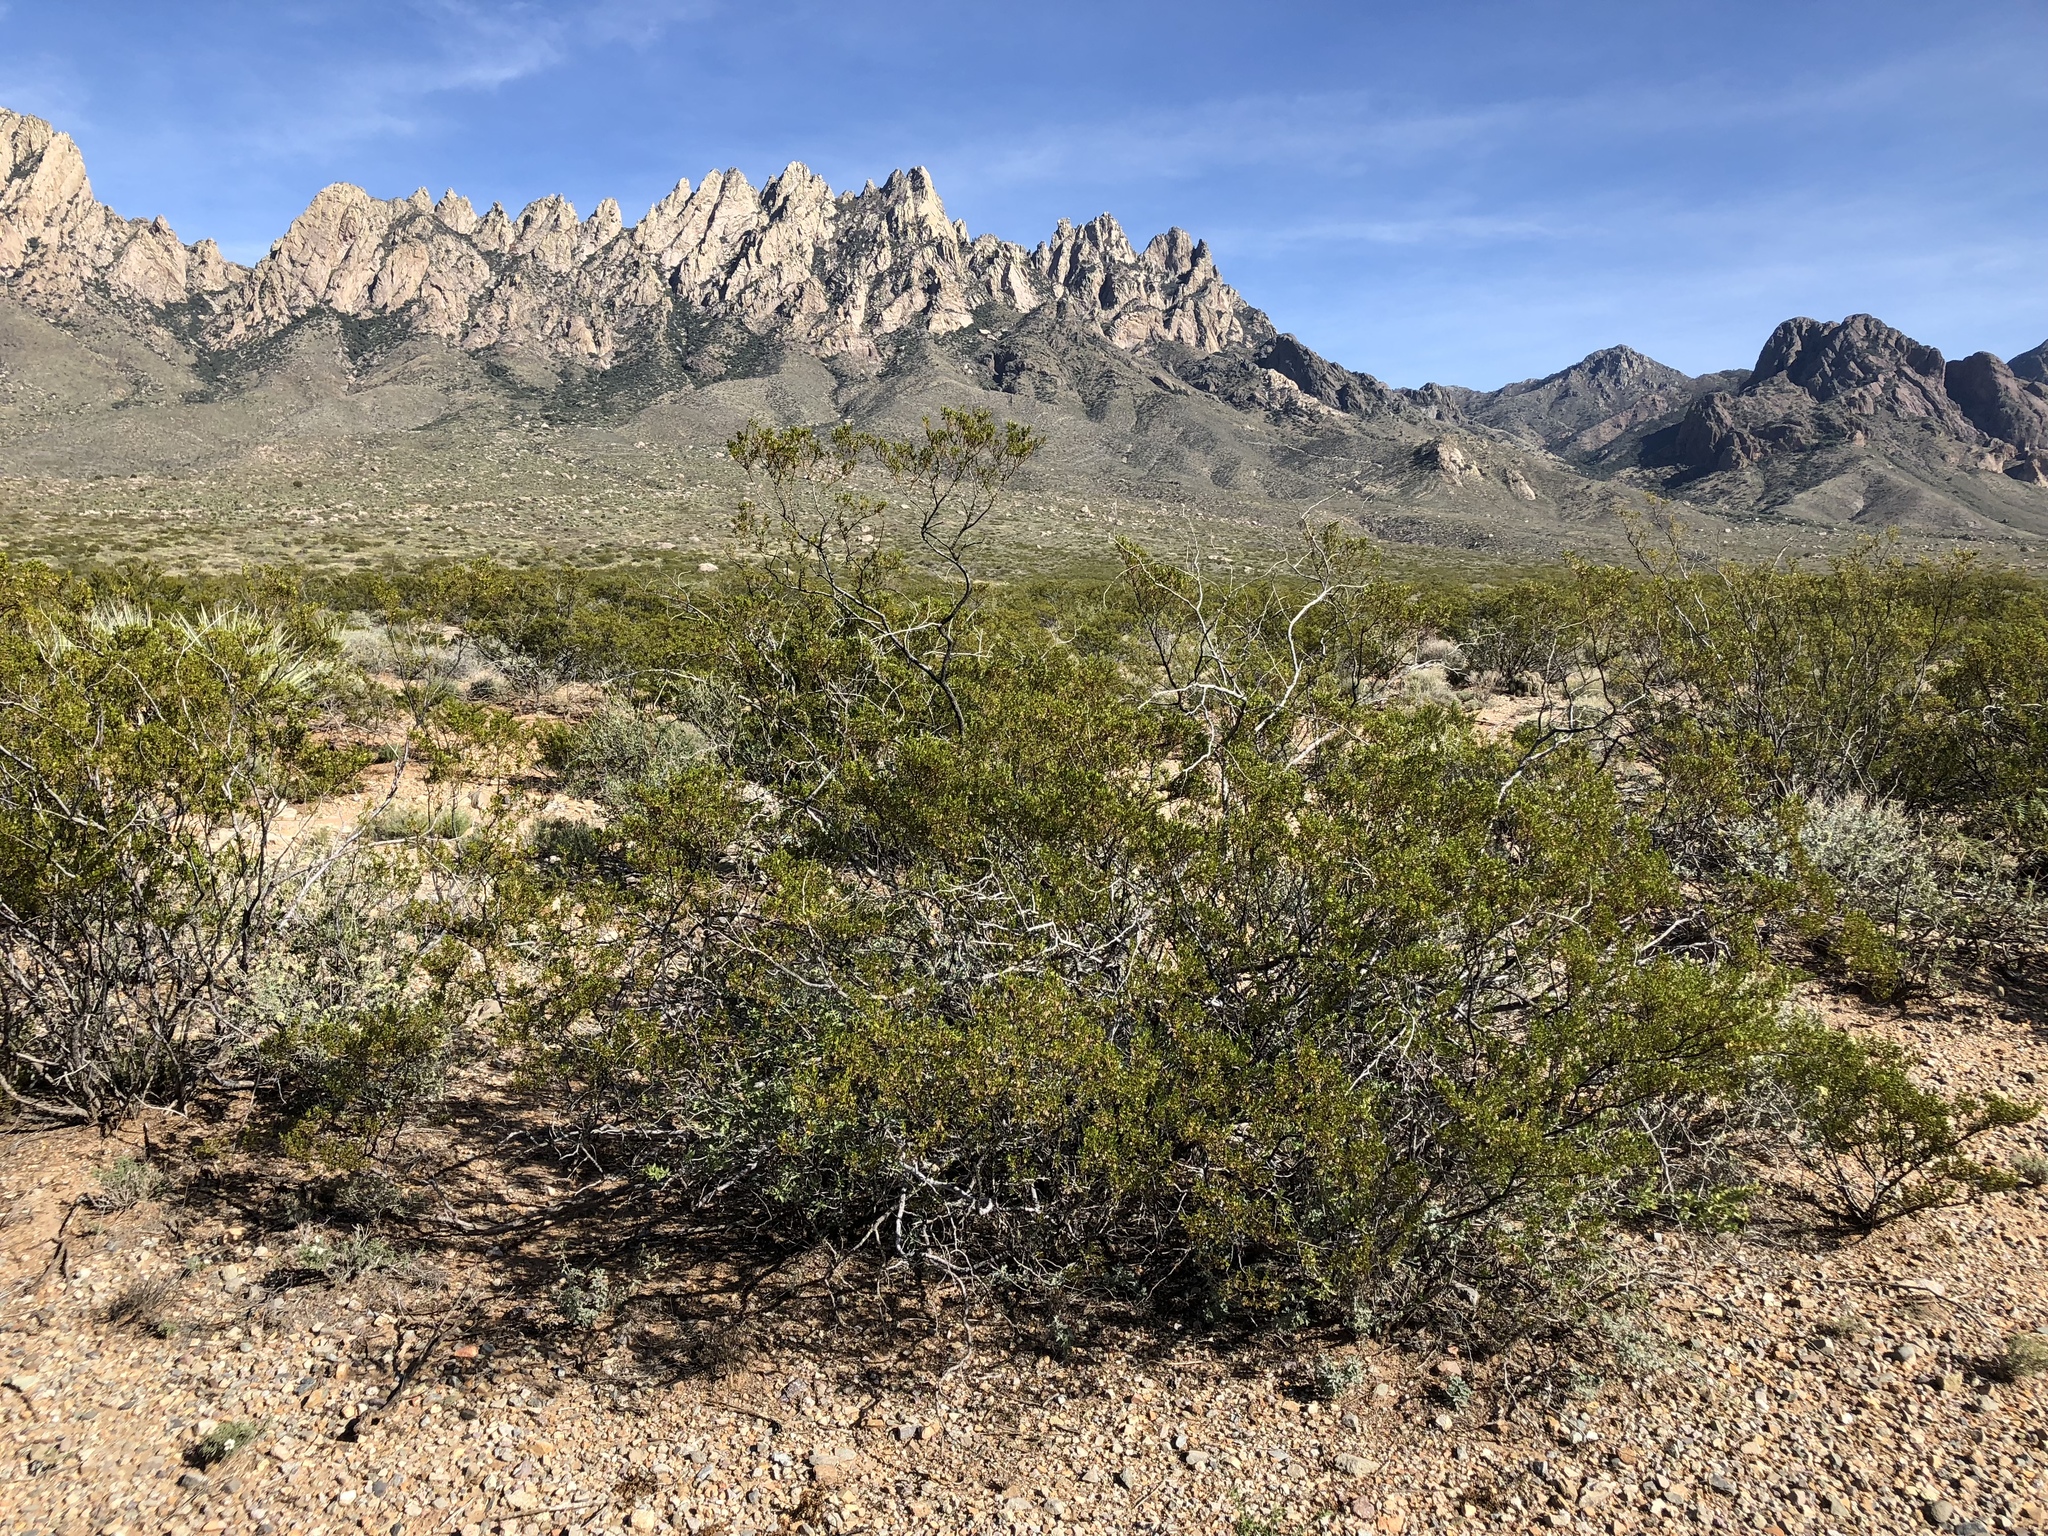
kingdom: Plantae
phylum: Tracheophyta
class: Magnoliopsida
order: Zygophyllales
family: Zygophyllaceae
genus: Larrea
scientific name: Larrea tridentata
